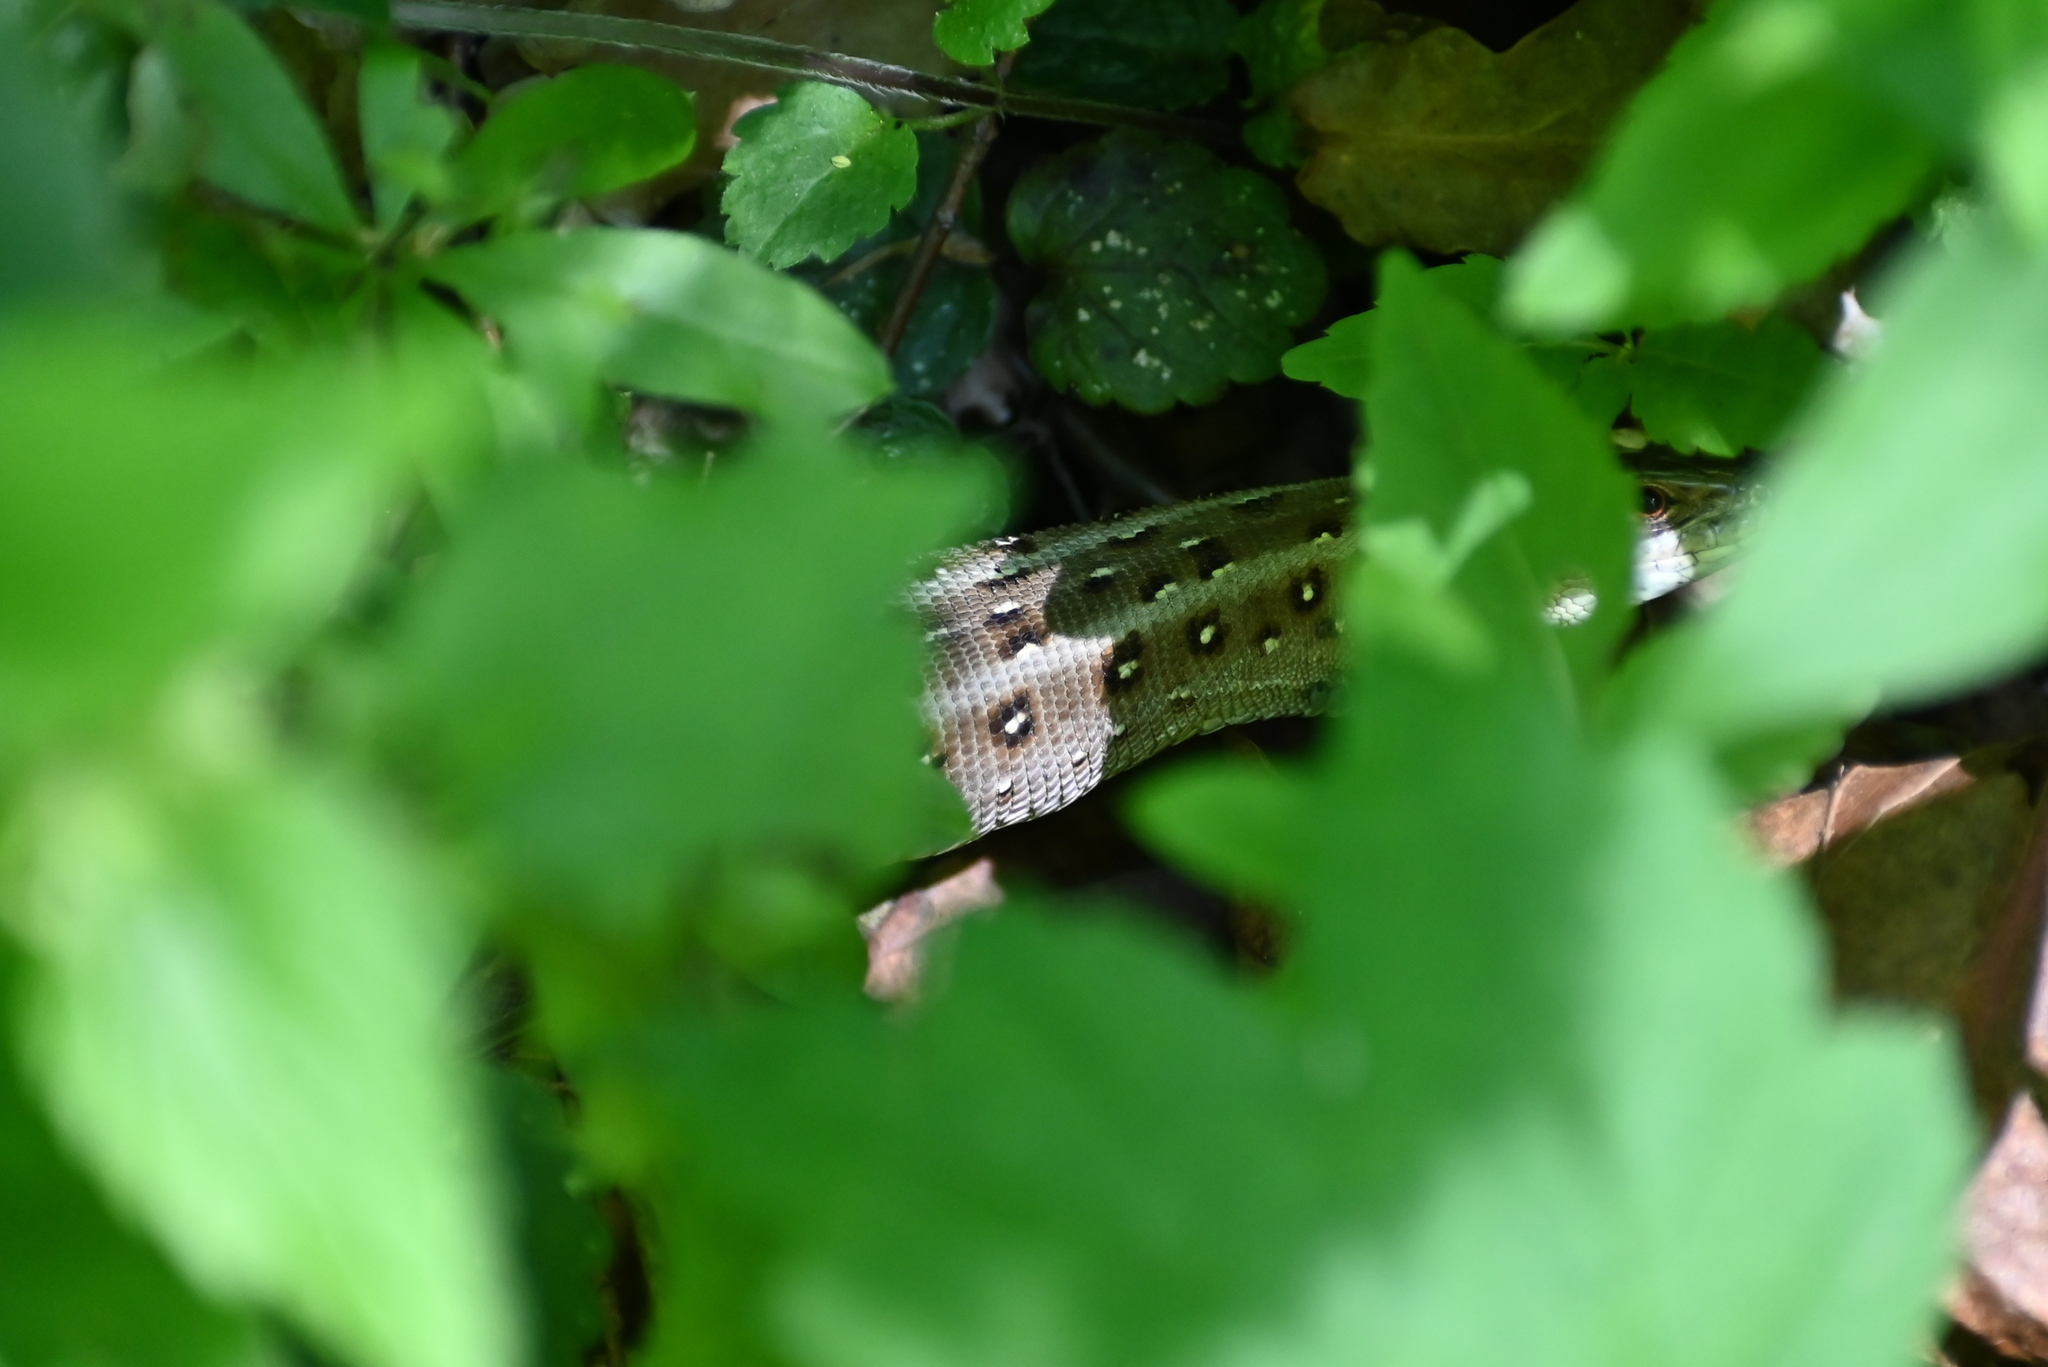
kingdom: Animalia
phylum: Chordata
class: Squamata
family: Lacertidae
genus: Lacerta
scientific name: Lacerta agilis
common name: Sand lizard
